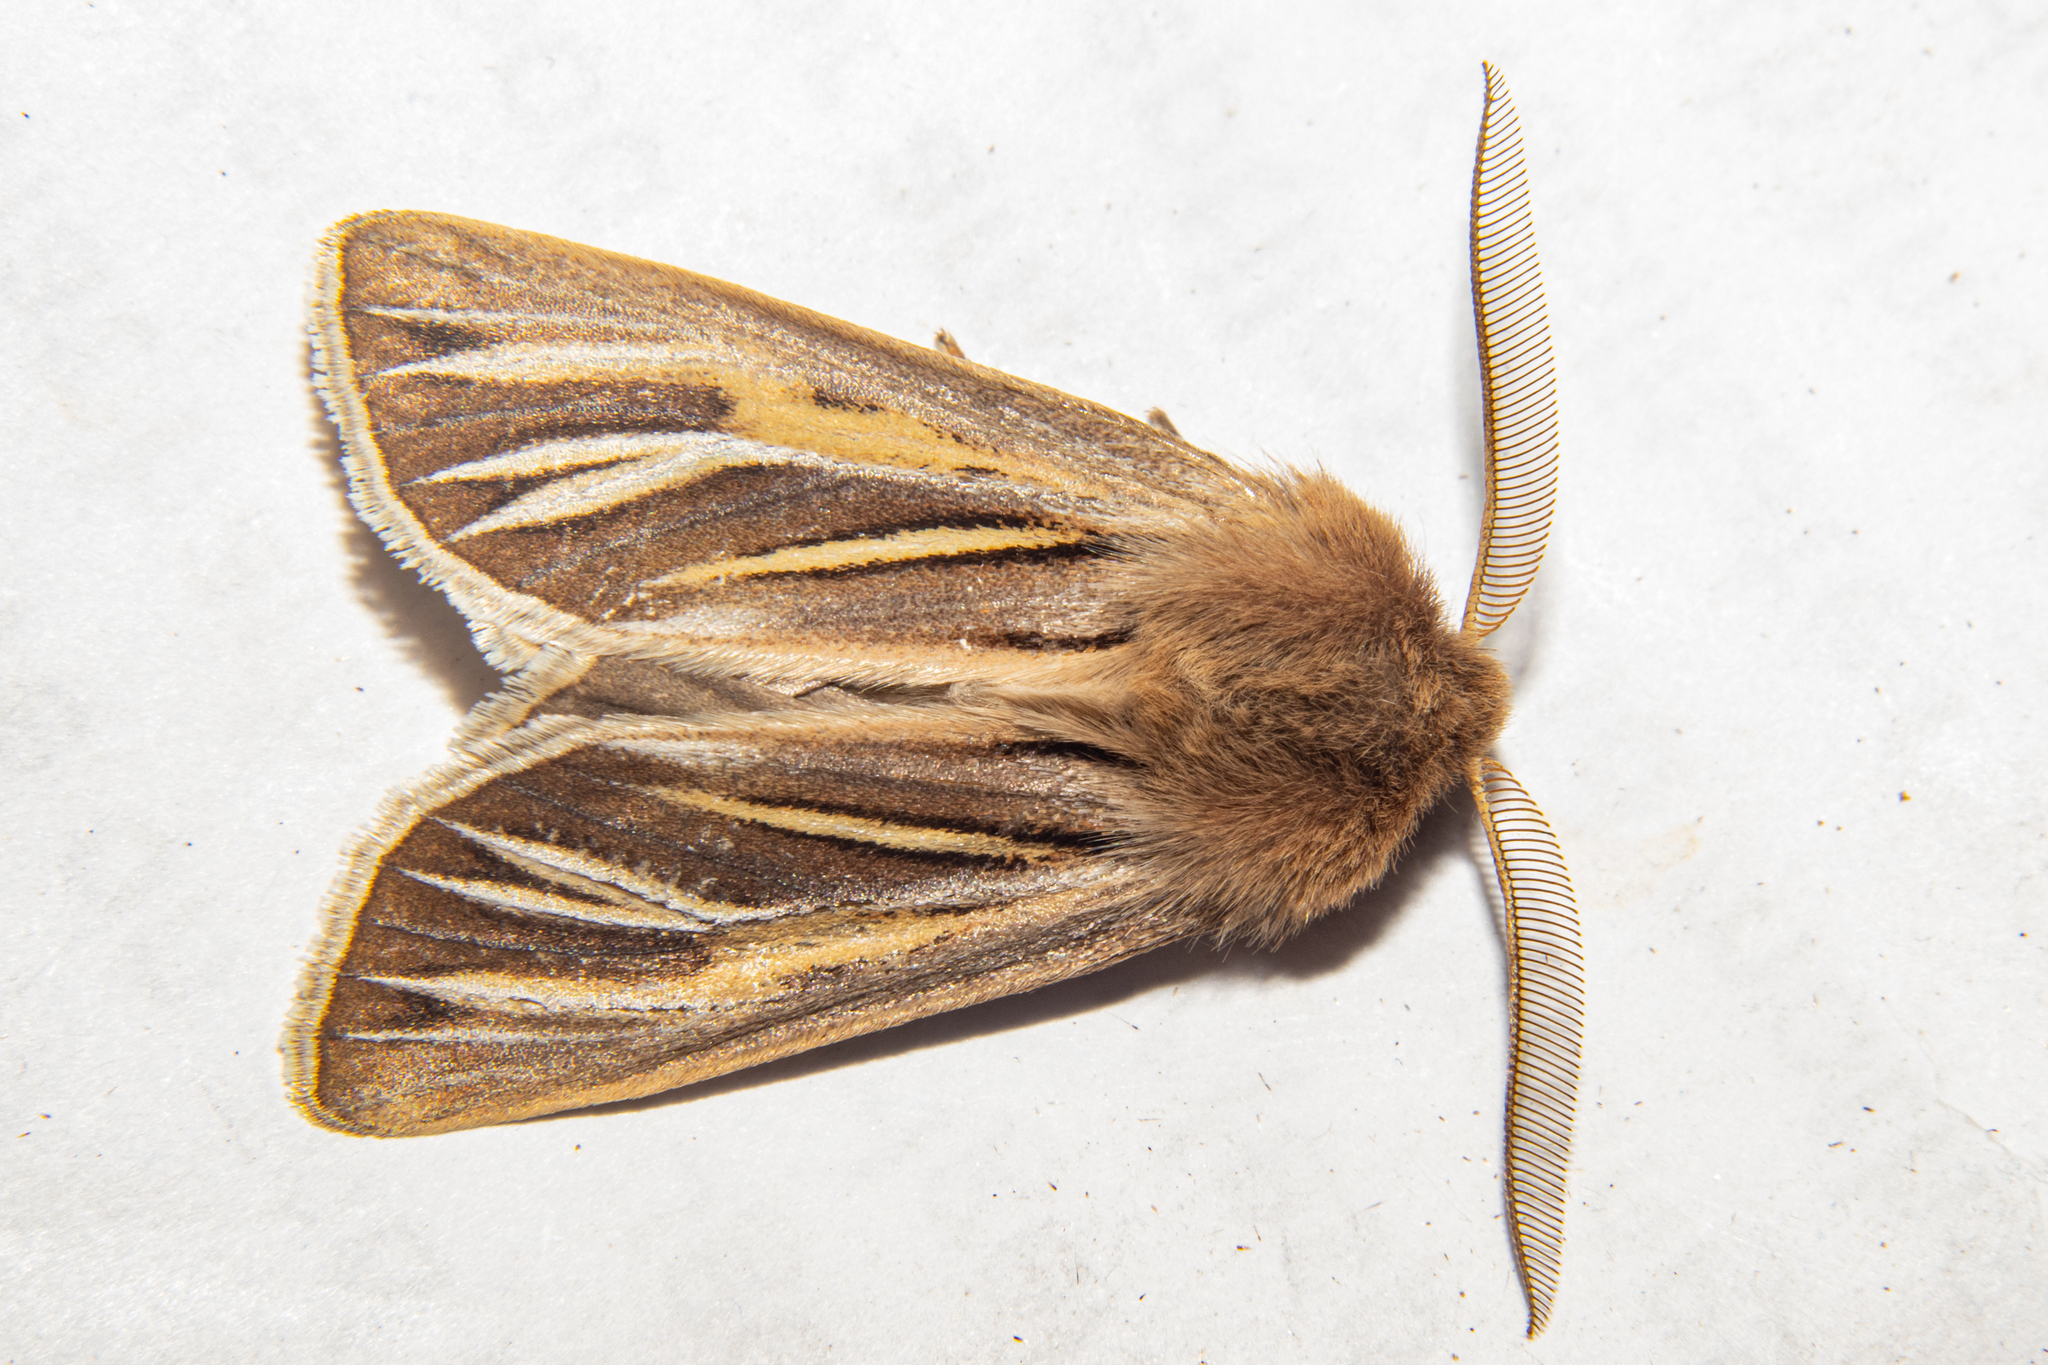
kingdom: Animalia
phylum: Arthropoda
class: Insecta
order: Lepidoptera
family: Noctuidae
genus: Ichneutica
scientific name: Ichneutica caraunias
